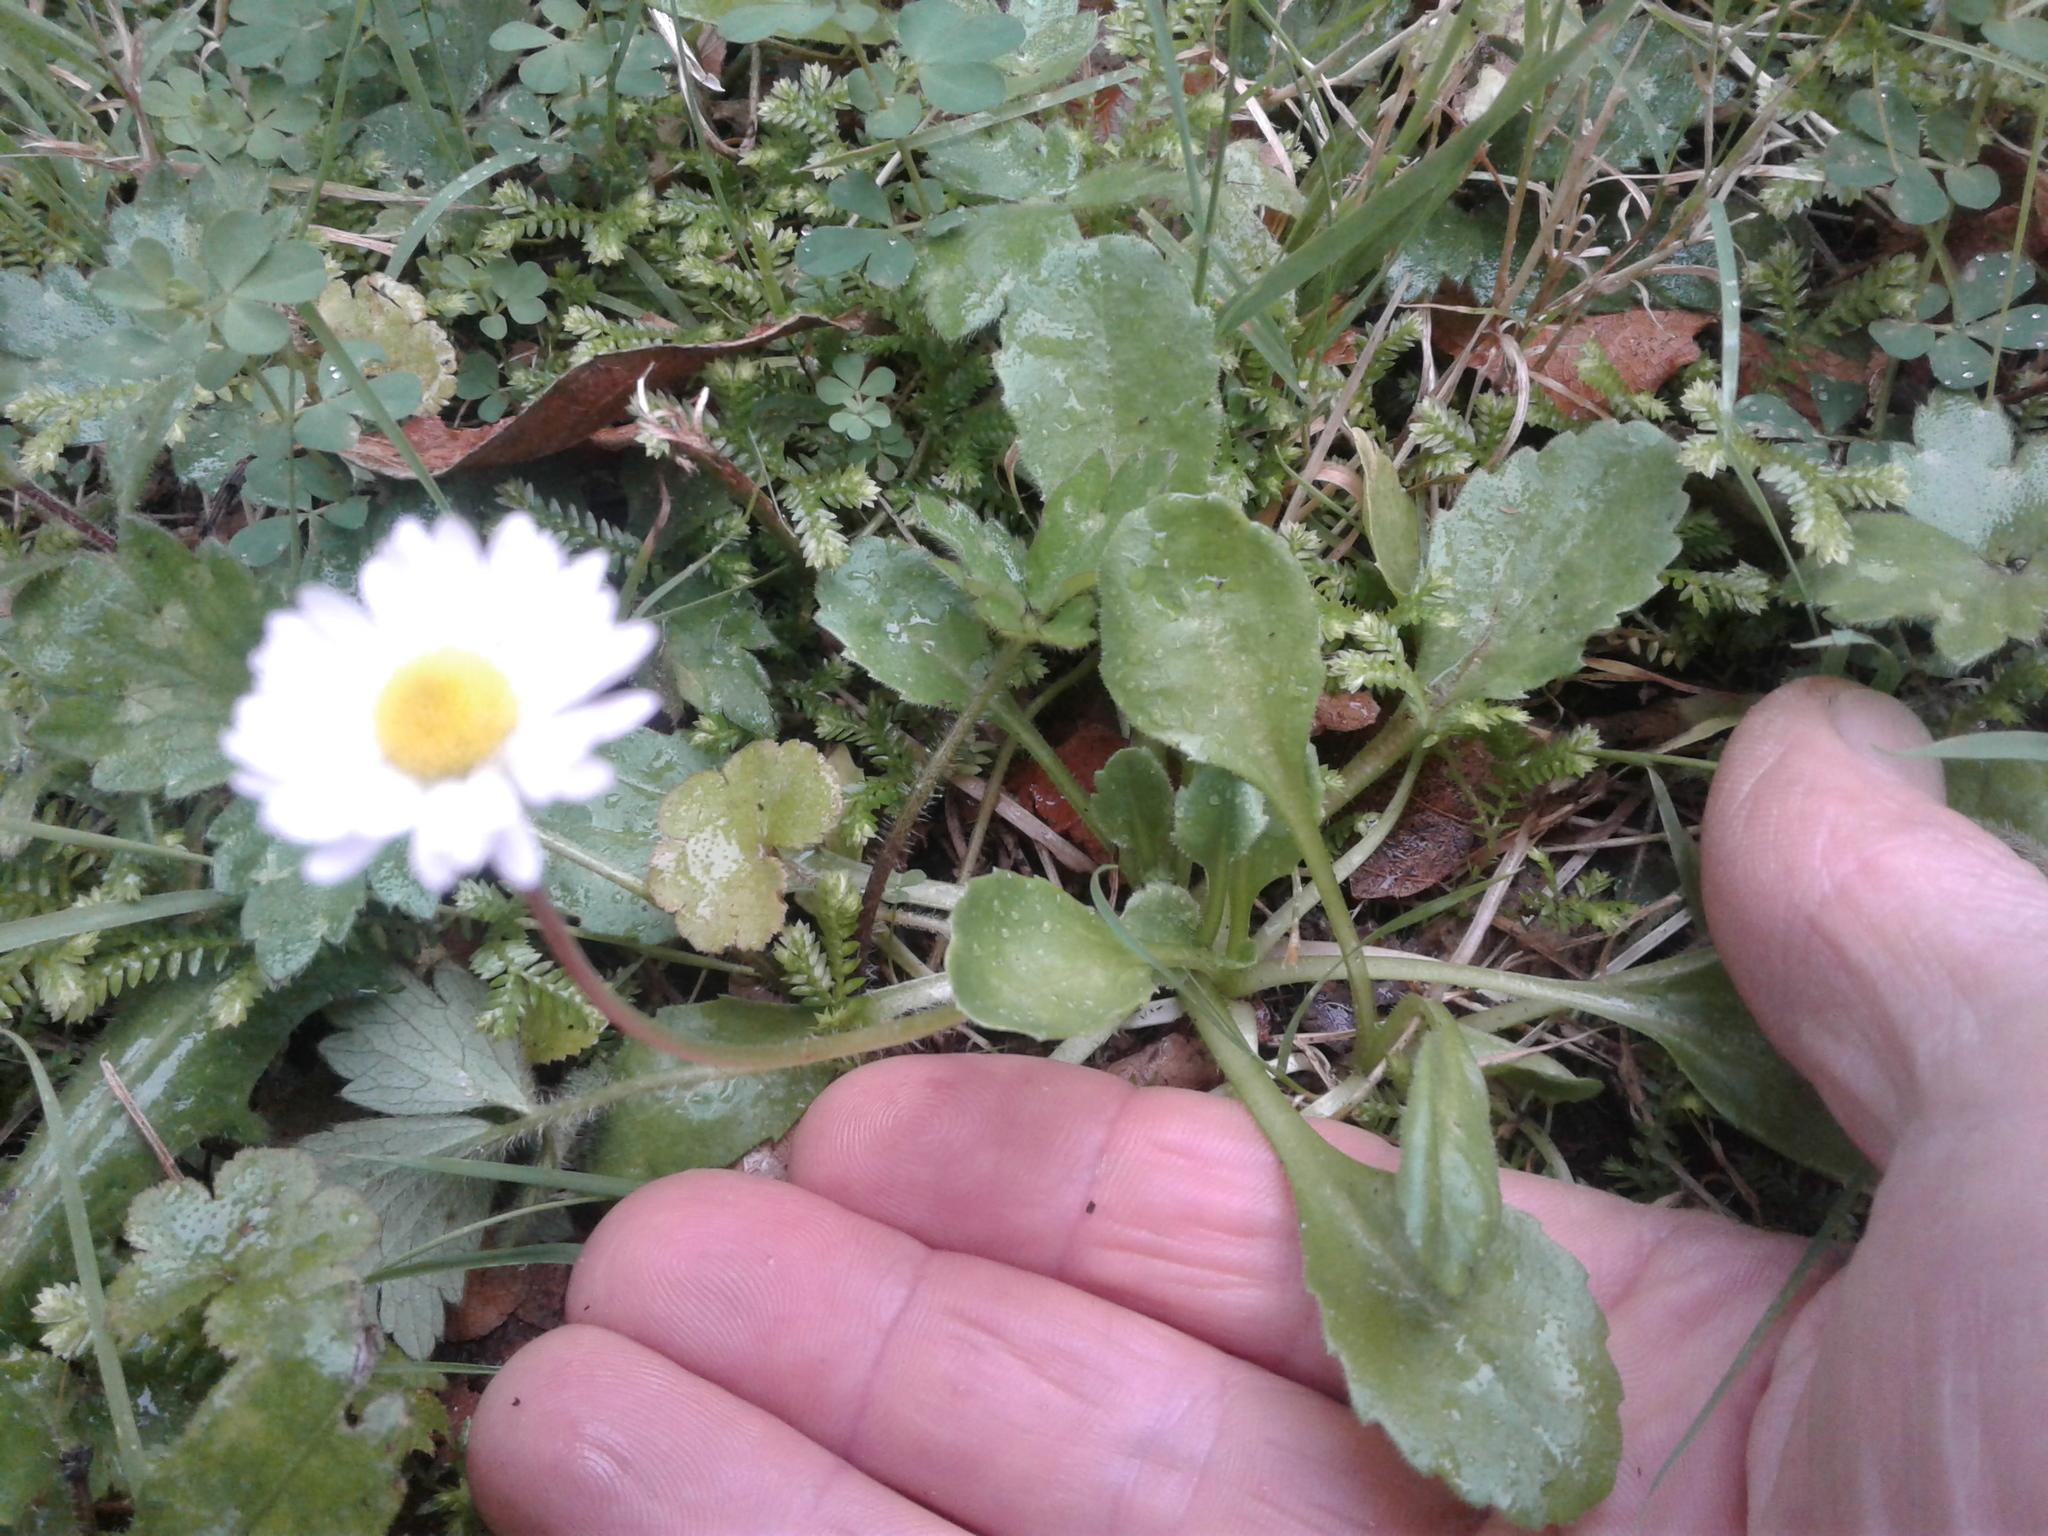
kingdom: Plantae
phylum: Tracheophyta
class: Magnoliopsida
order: Asterales
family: Asteraceae
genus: Bellis
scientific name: Bellis perennis
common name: Lawndaisy
